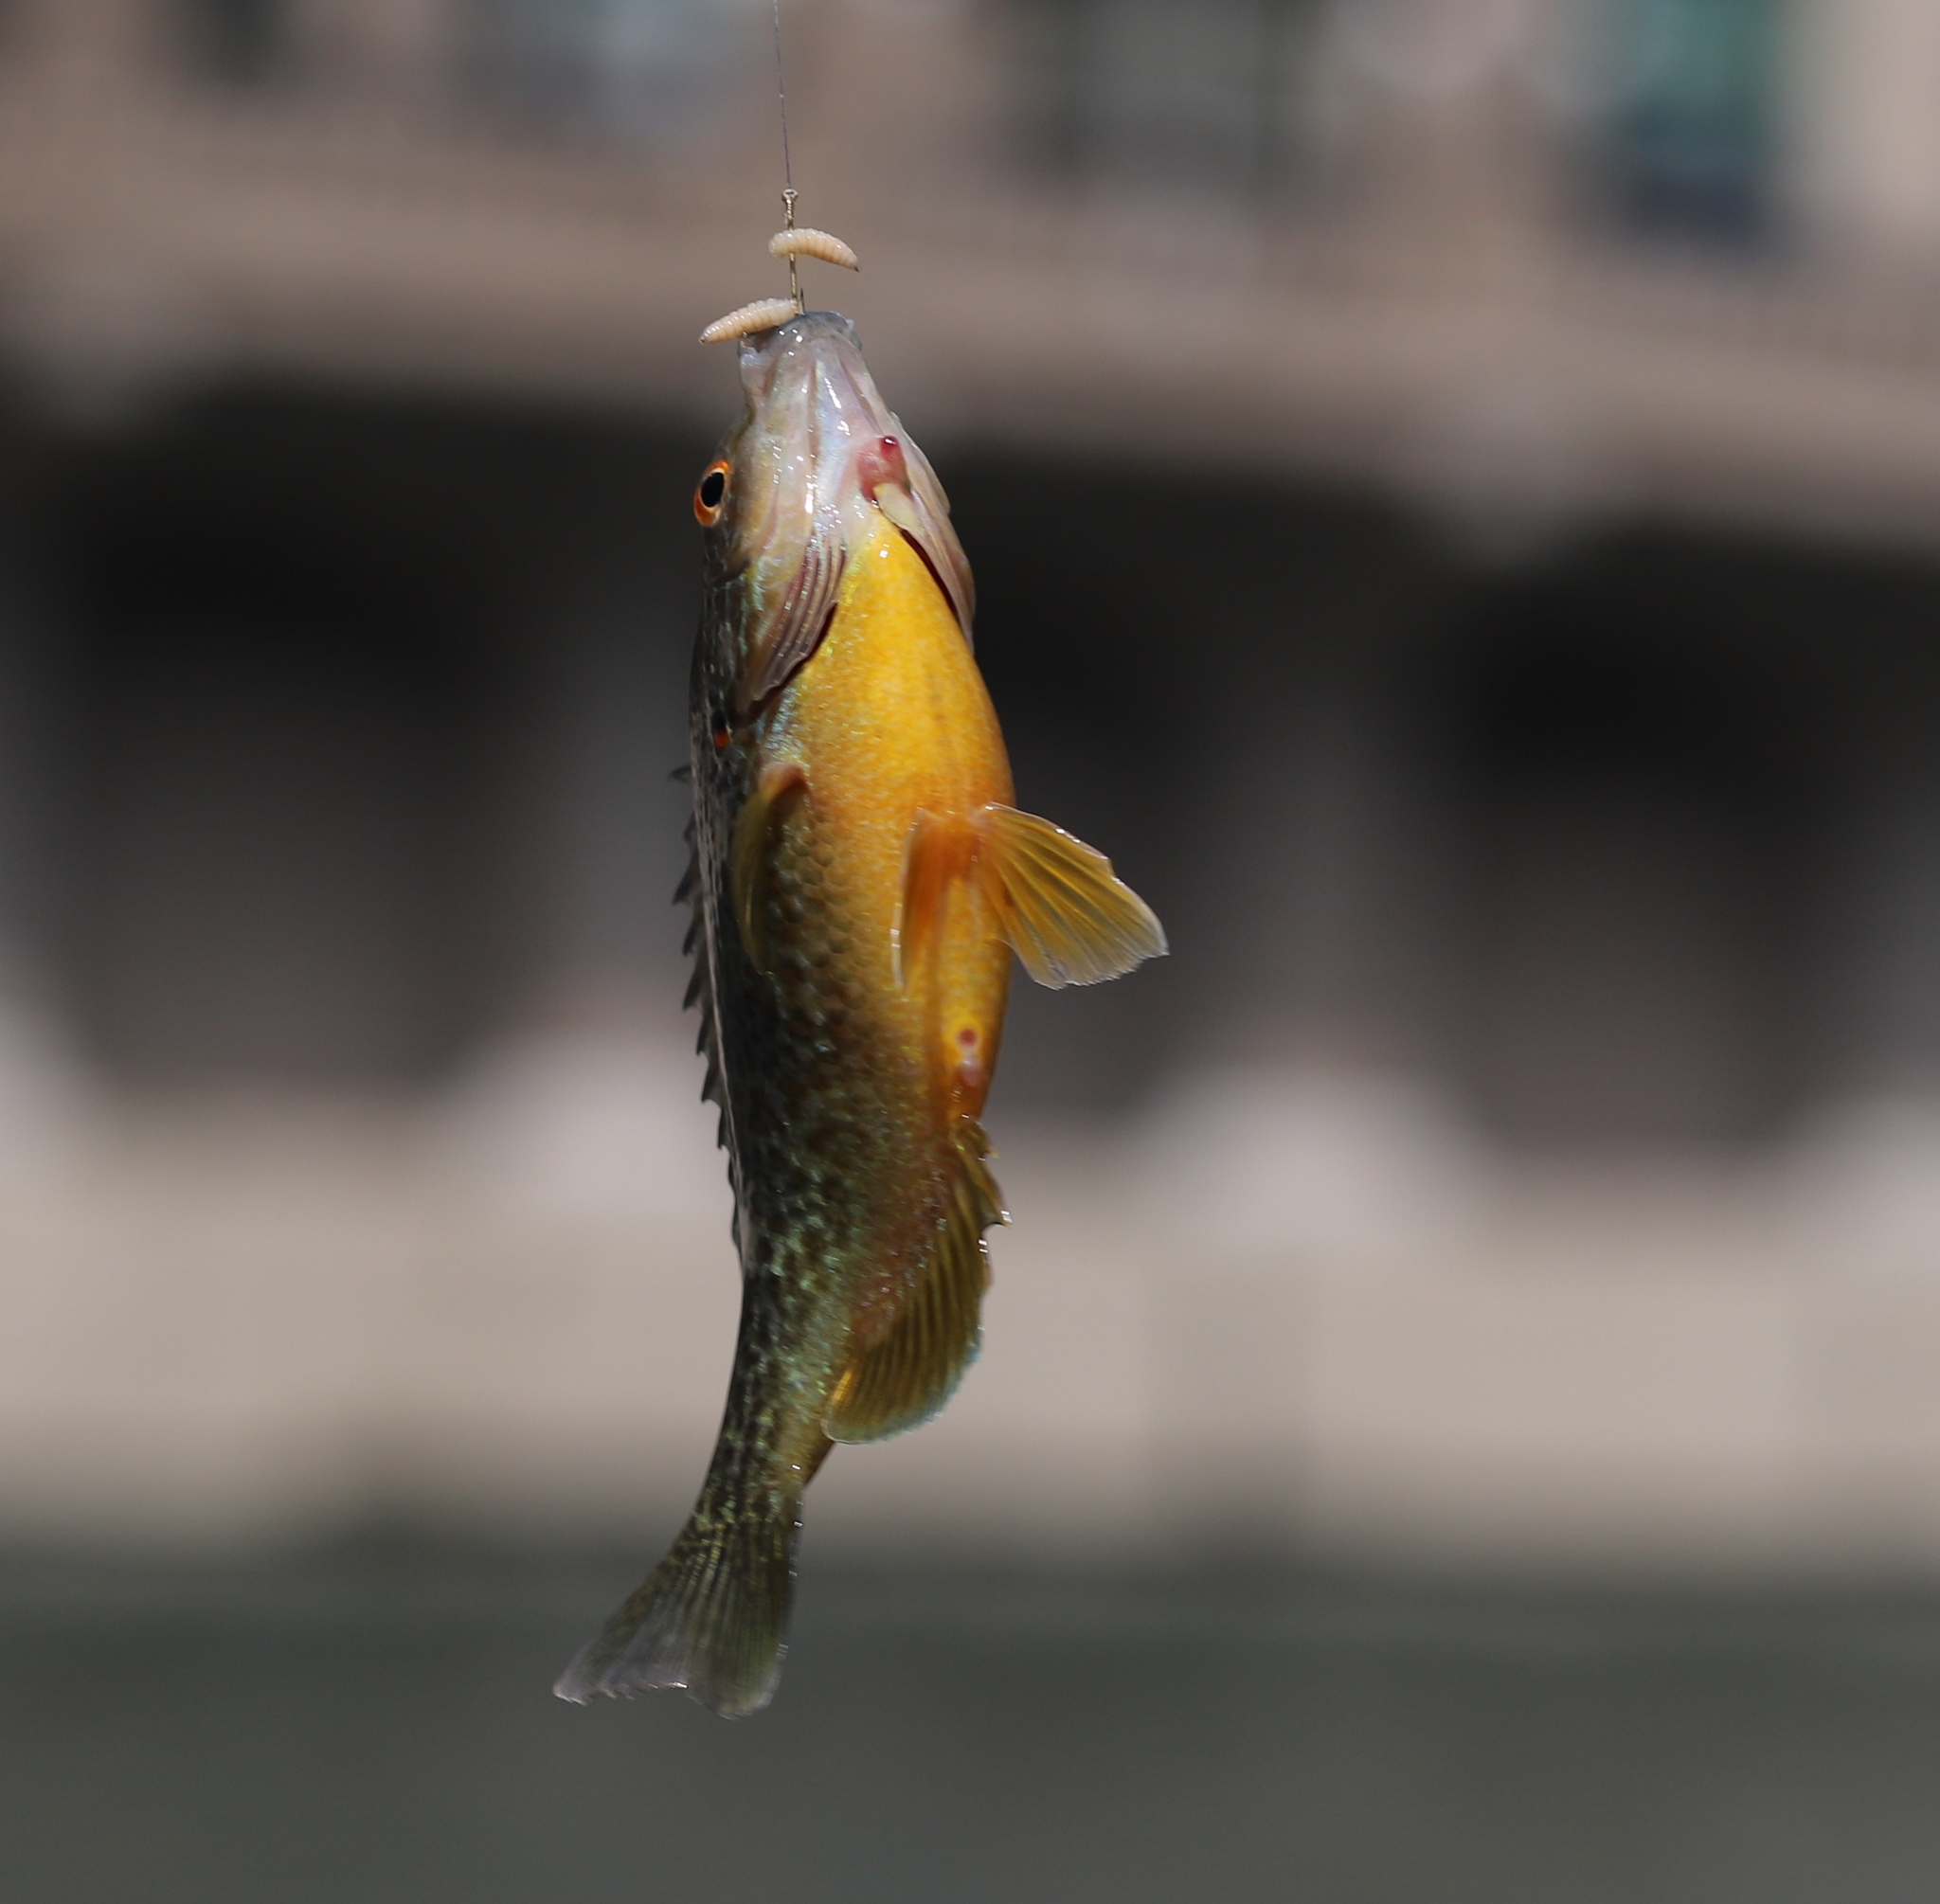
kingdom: Animalia
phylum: Chordata
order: Perciformes
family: Centrarchidae
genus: Lepomis
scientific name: Lepomis gibbosus
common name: Pumpkinseed
